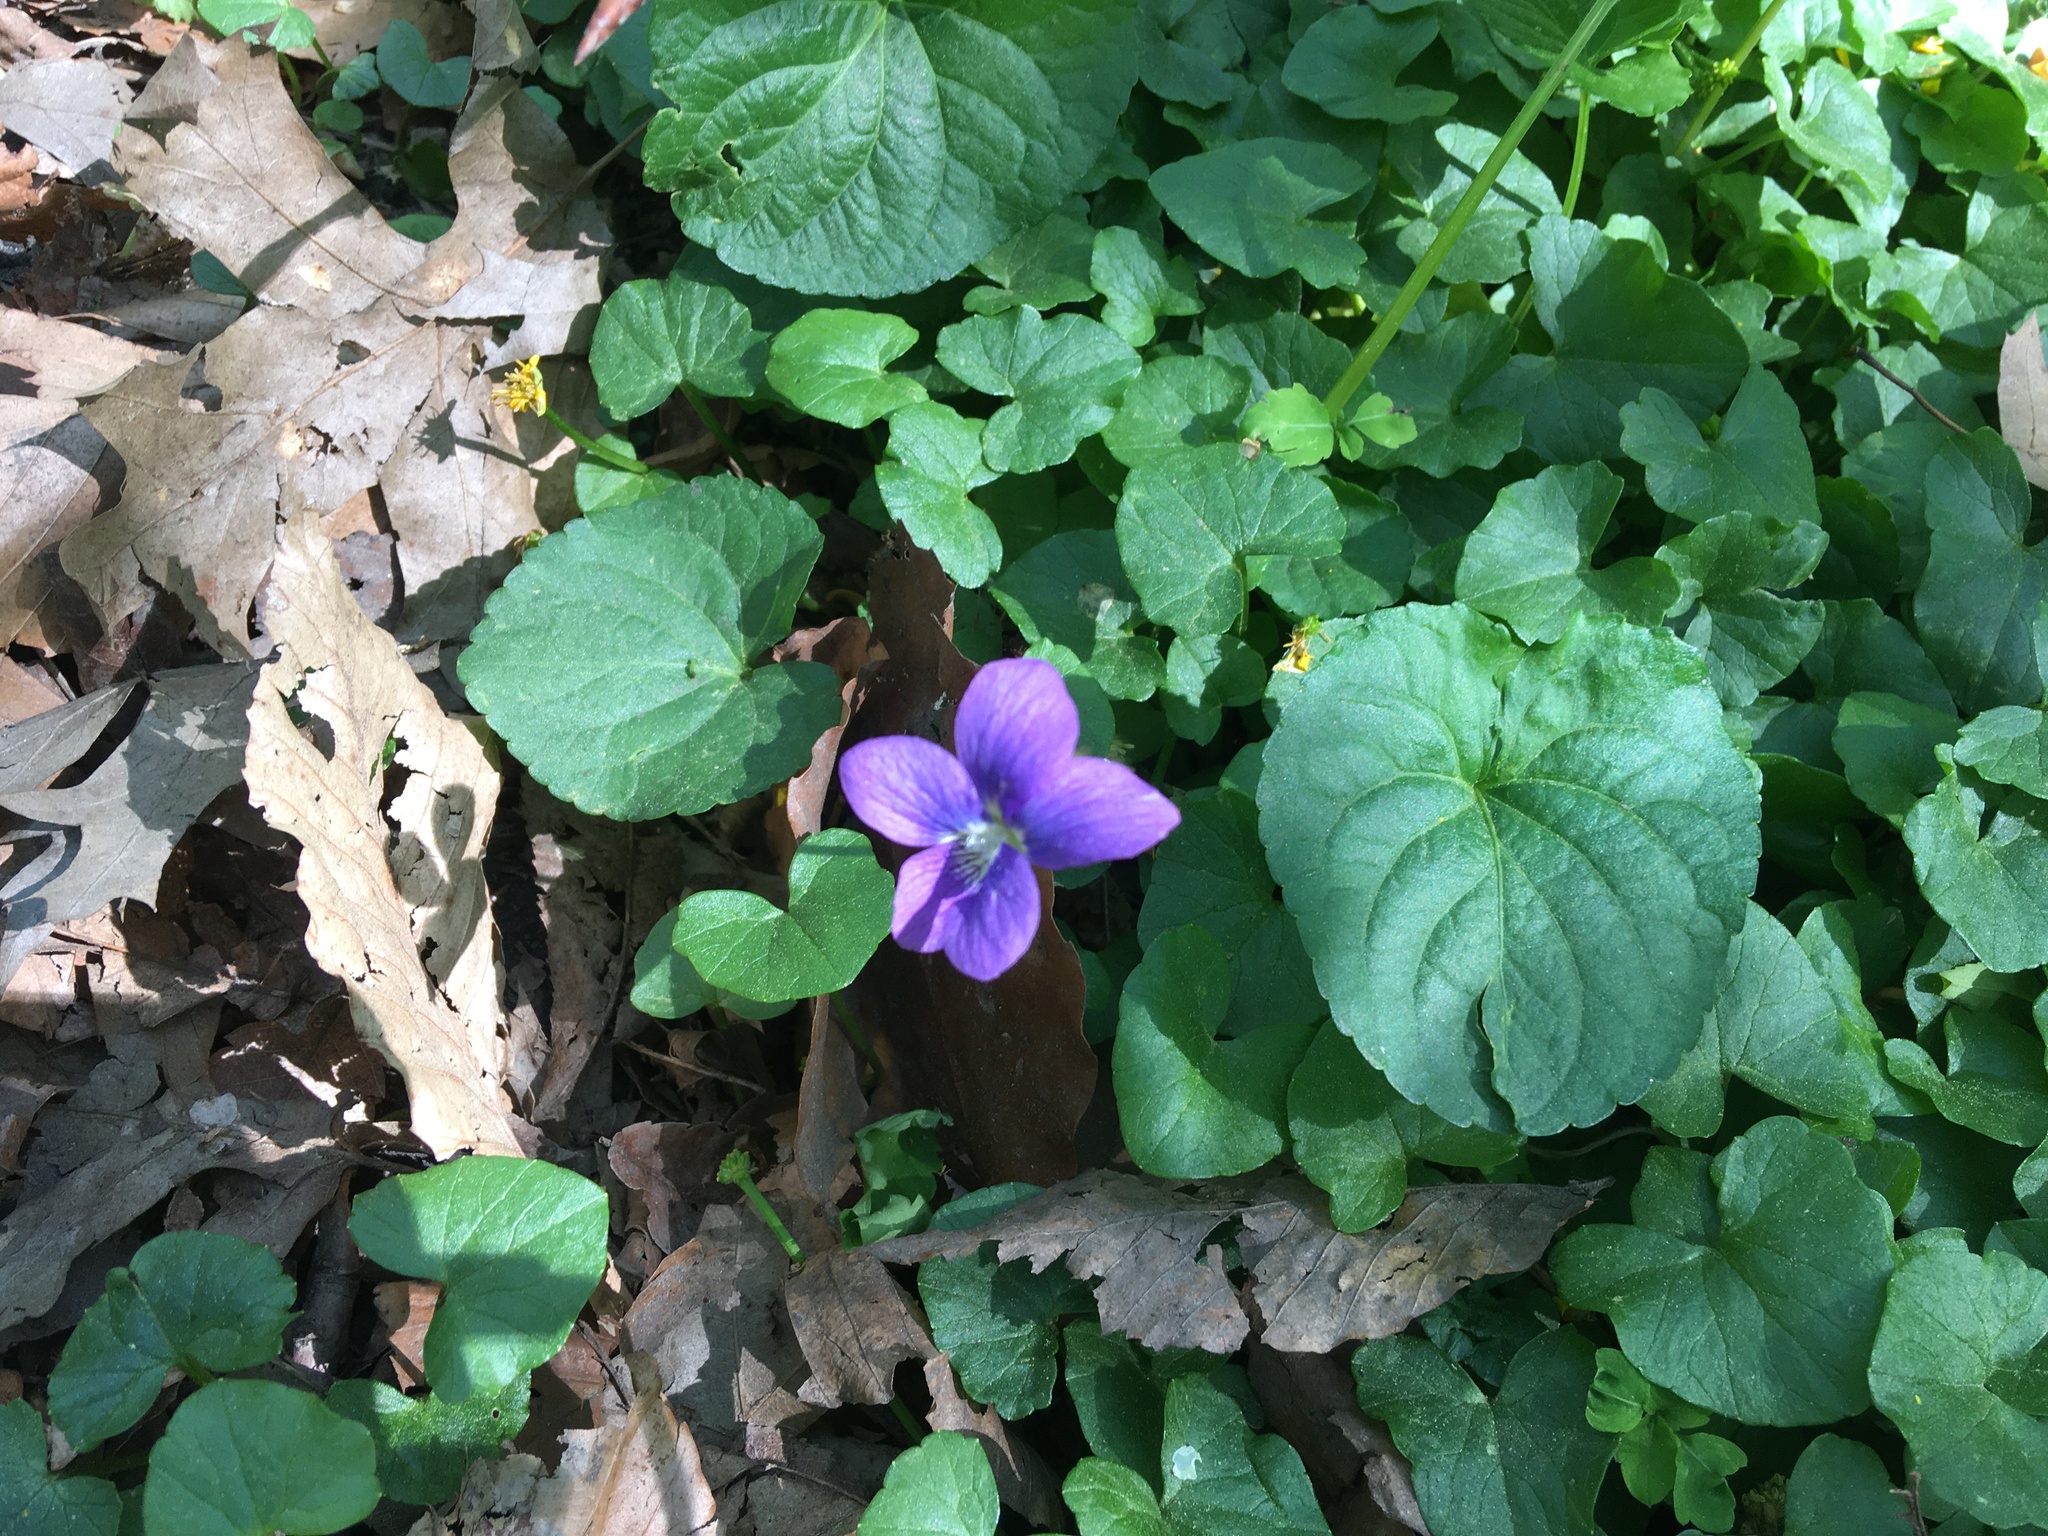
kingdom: Plantae
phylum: Tracheophyta
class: Magnoliopsida
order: Malpighiales
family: Violaceae
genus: Viola
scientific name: Viola sororia
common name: Dooryard violet
